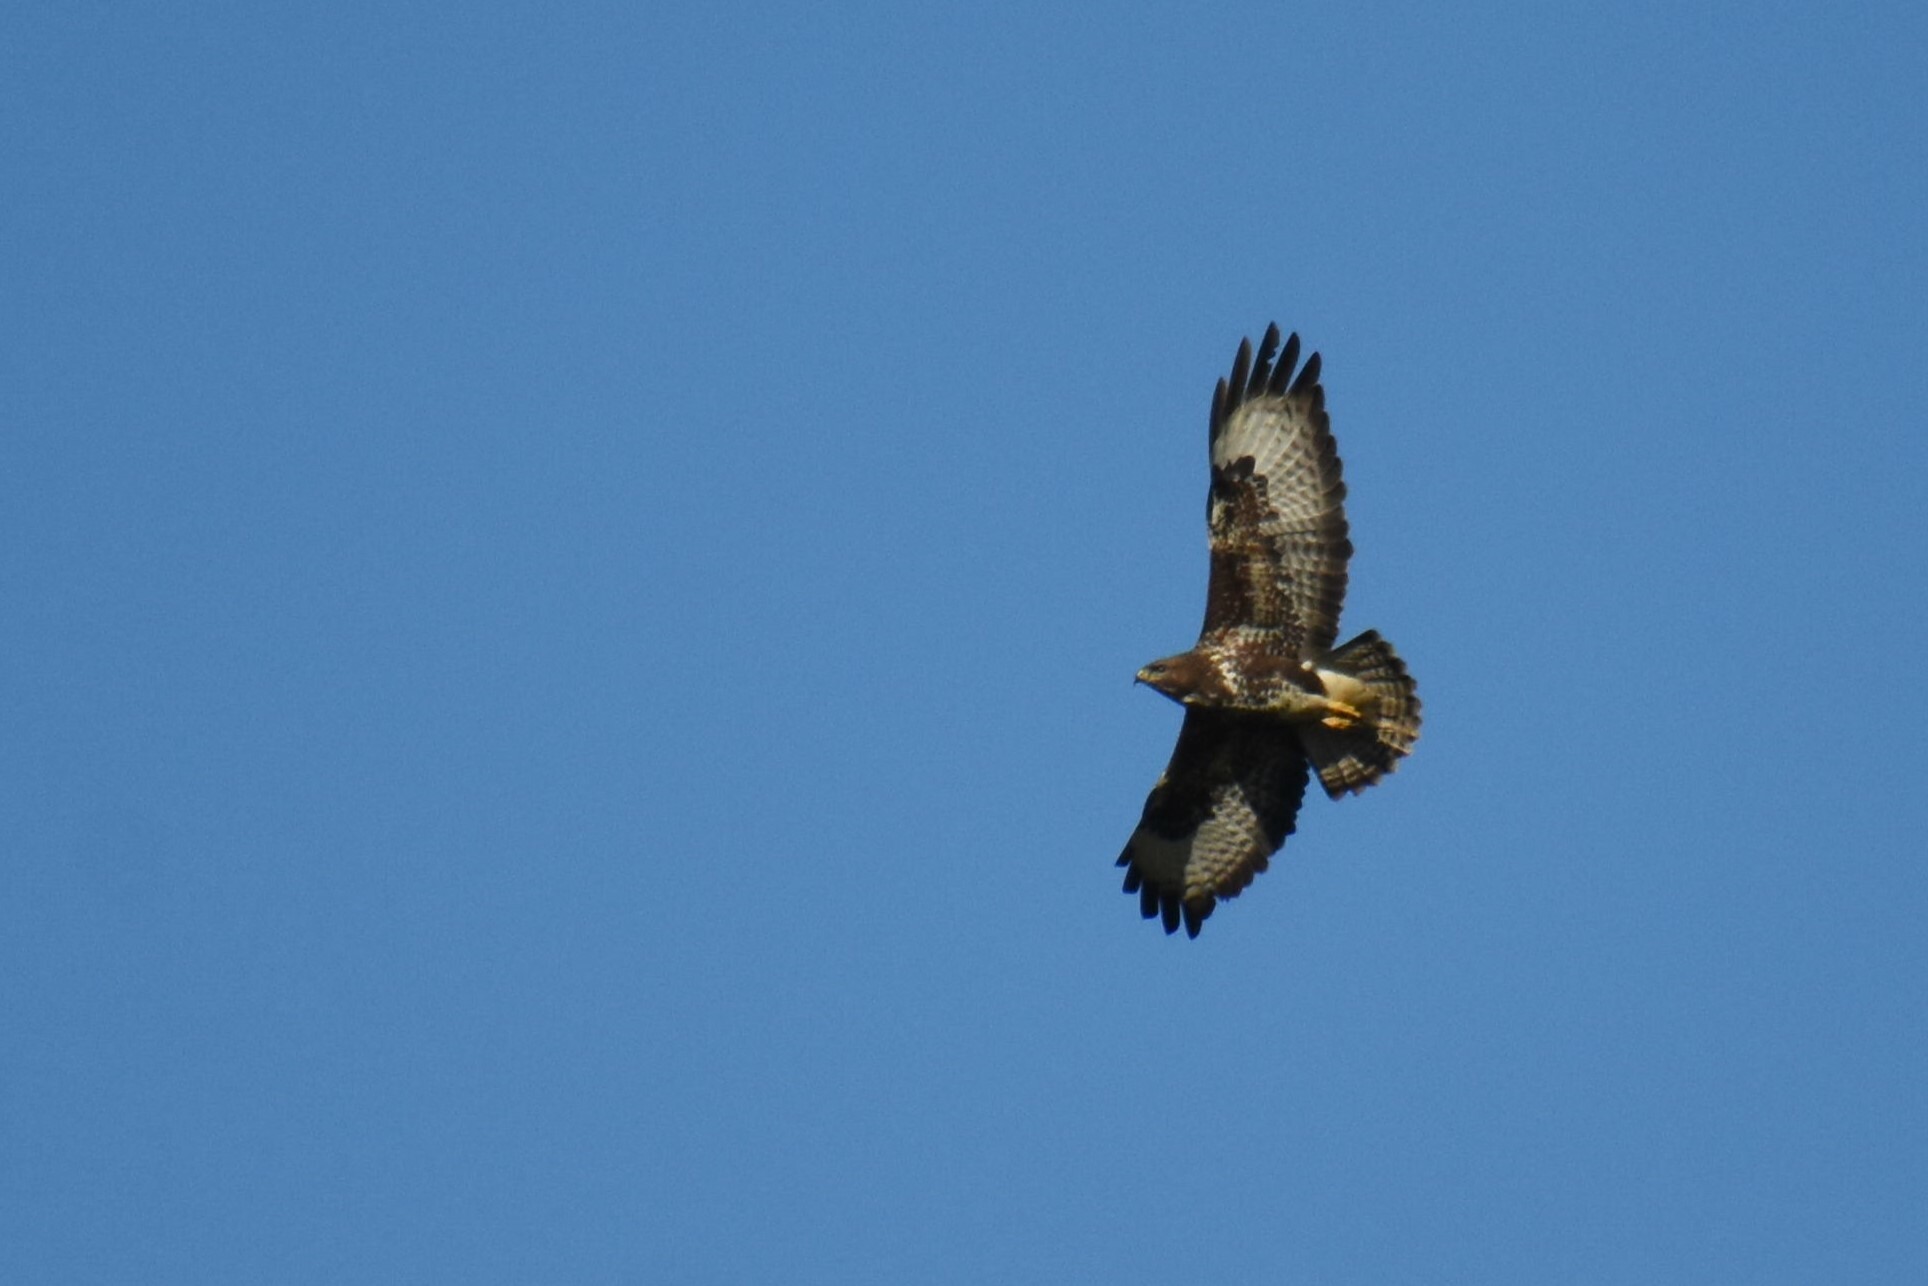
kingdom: Animalia
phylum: Chordata
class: Aves
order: Accipitriformes
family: Accipitridae
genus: Buteo
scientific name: Buteo buteo
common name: Common buzzard
